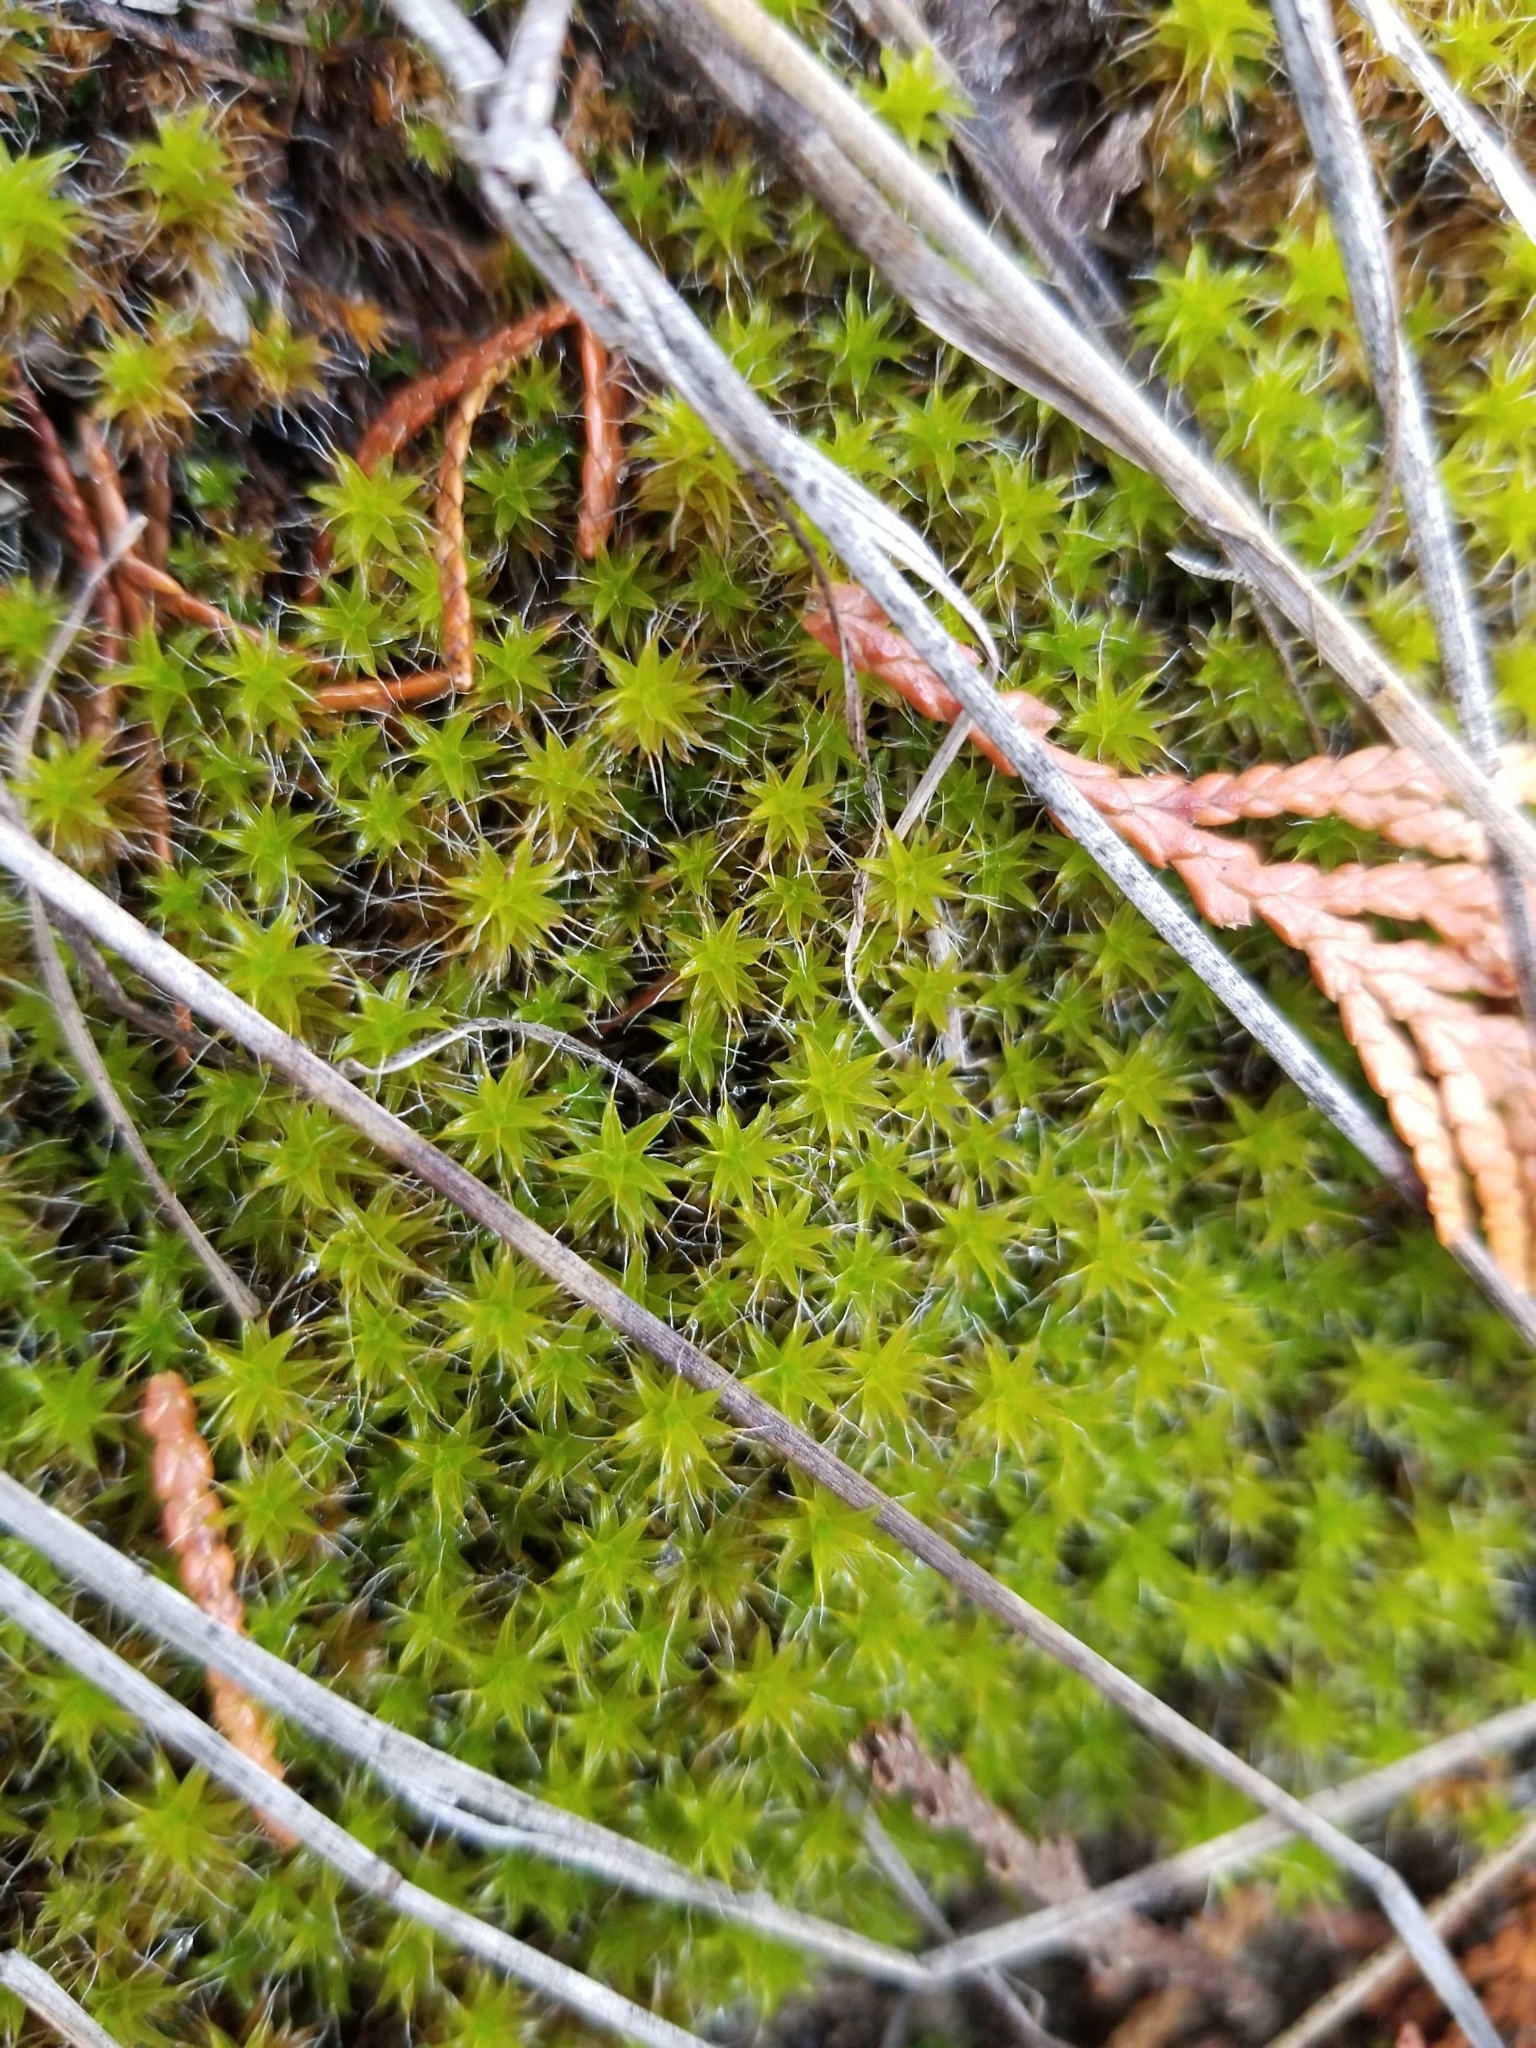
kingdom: Plantae
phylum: Bryophyta
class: Bryopsida
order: Pottiales
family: Pottiaceae
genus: Syntrichia
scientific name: Syntrichia princeps
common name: Brown screw-moss
